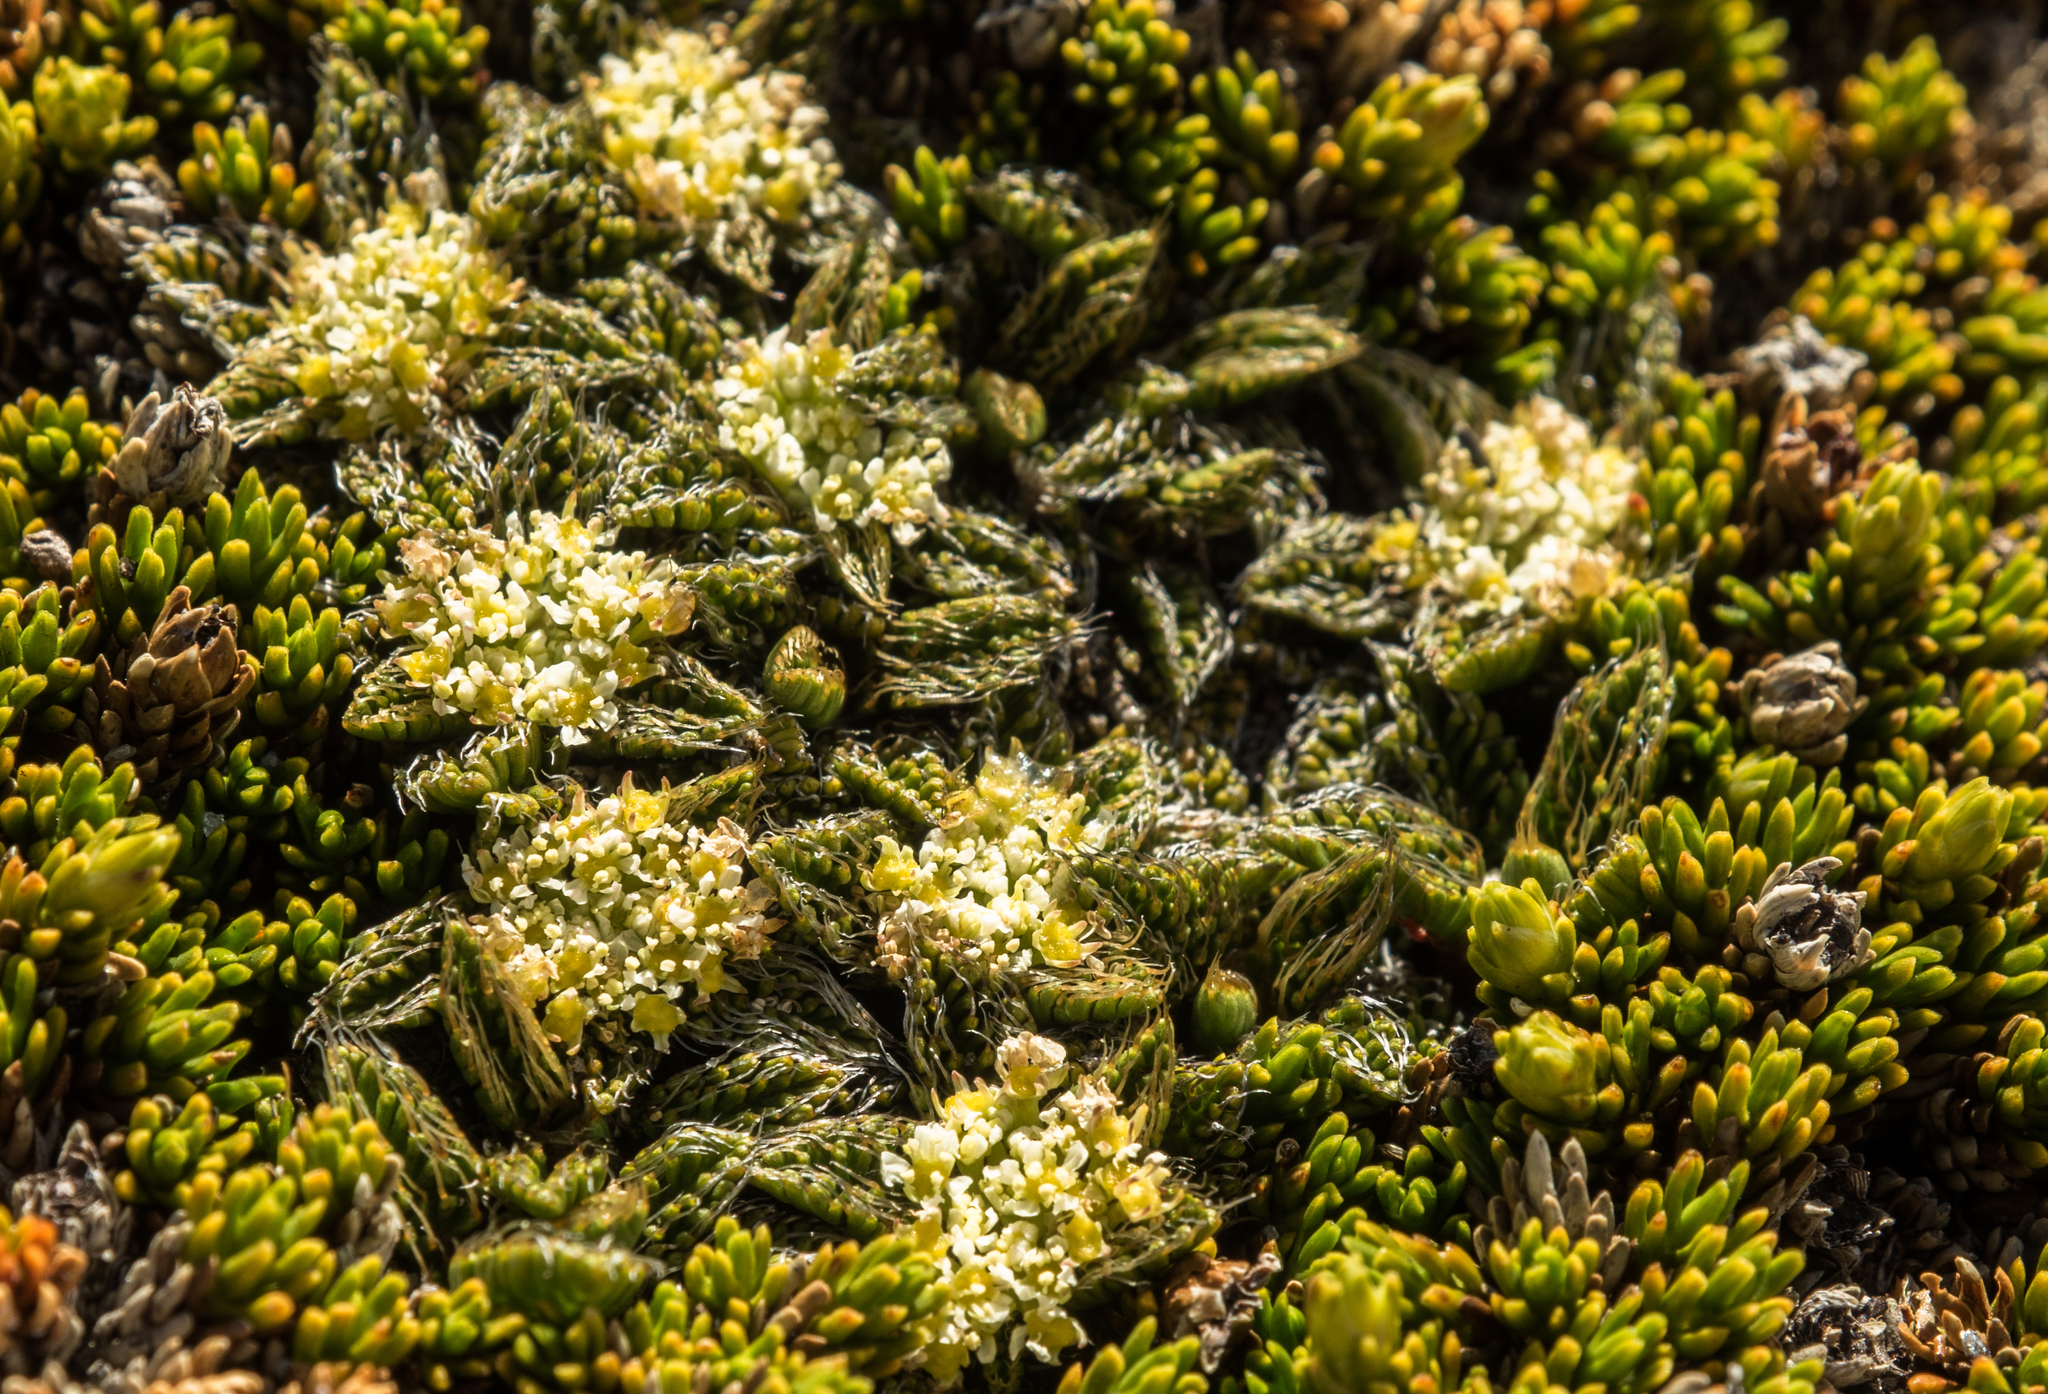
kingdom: Plantae
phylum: Tracheophyta
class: Magnoliopsida
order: Apiales
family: Apiaceae
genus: Anisotome
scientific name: Anisotome imbricata
